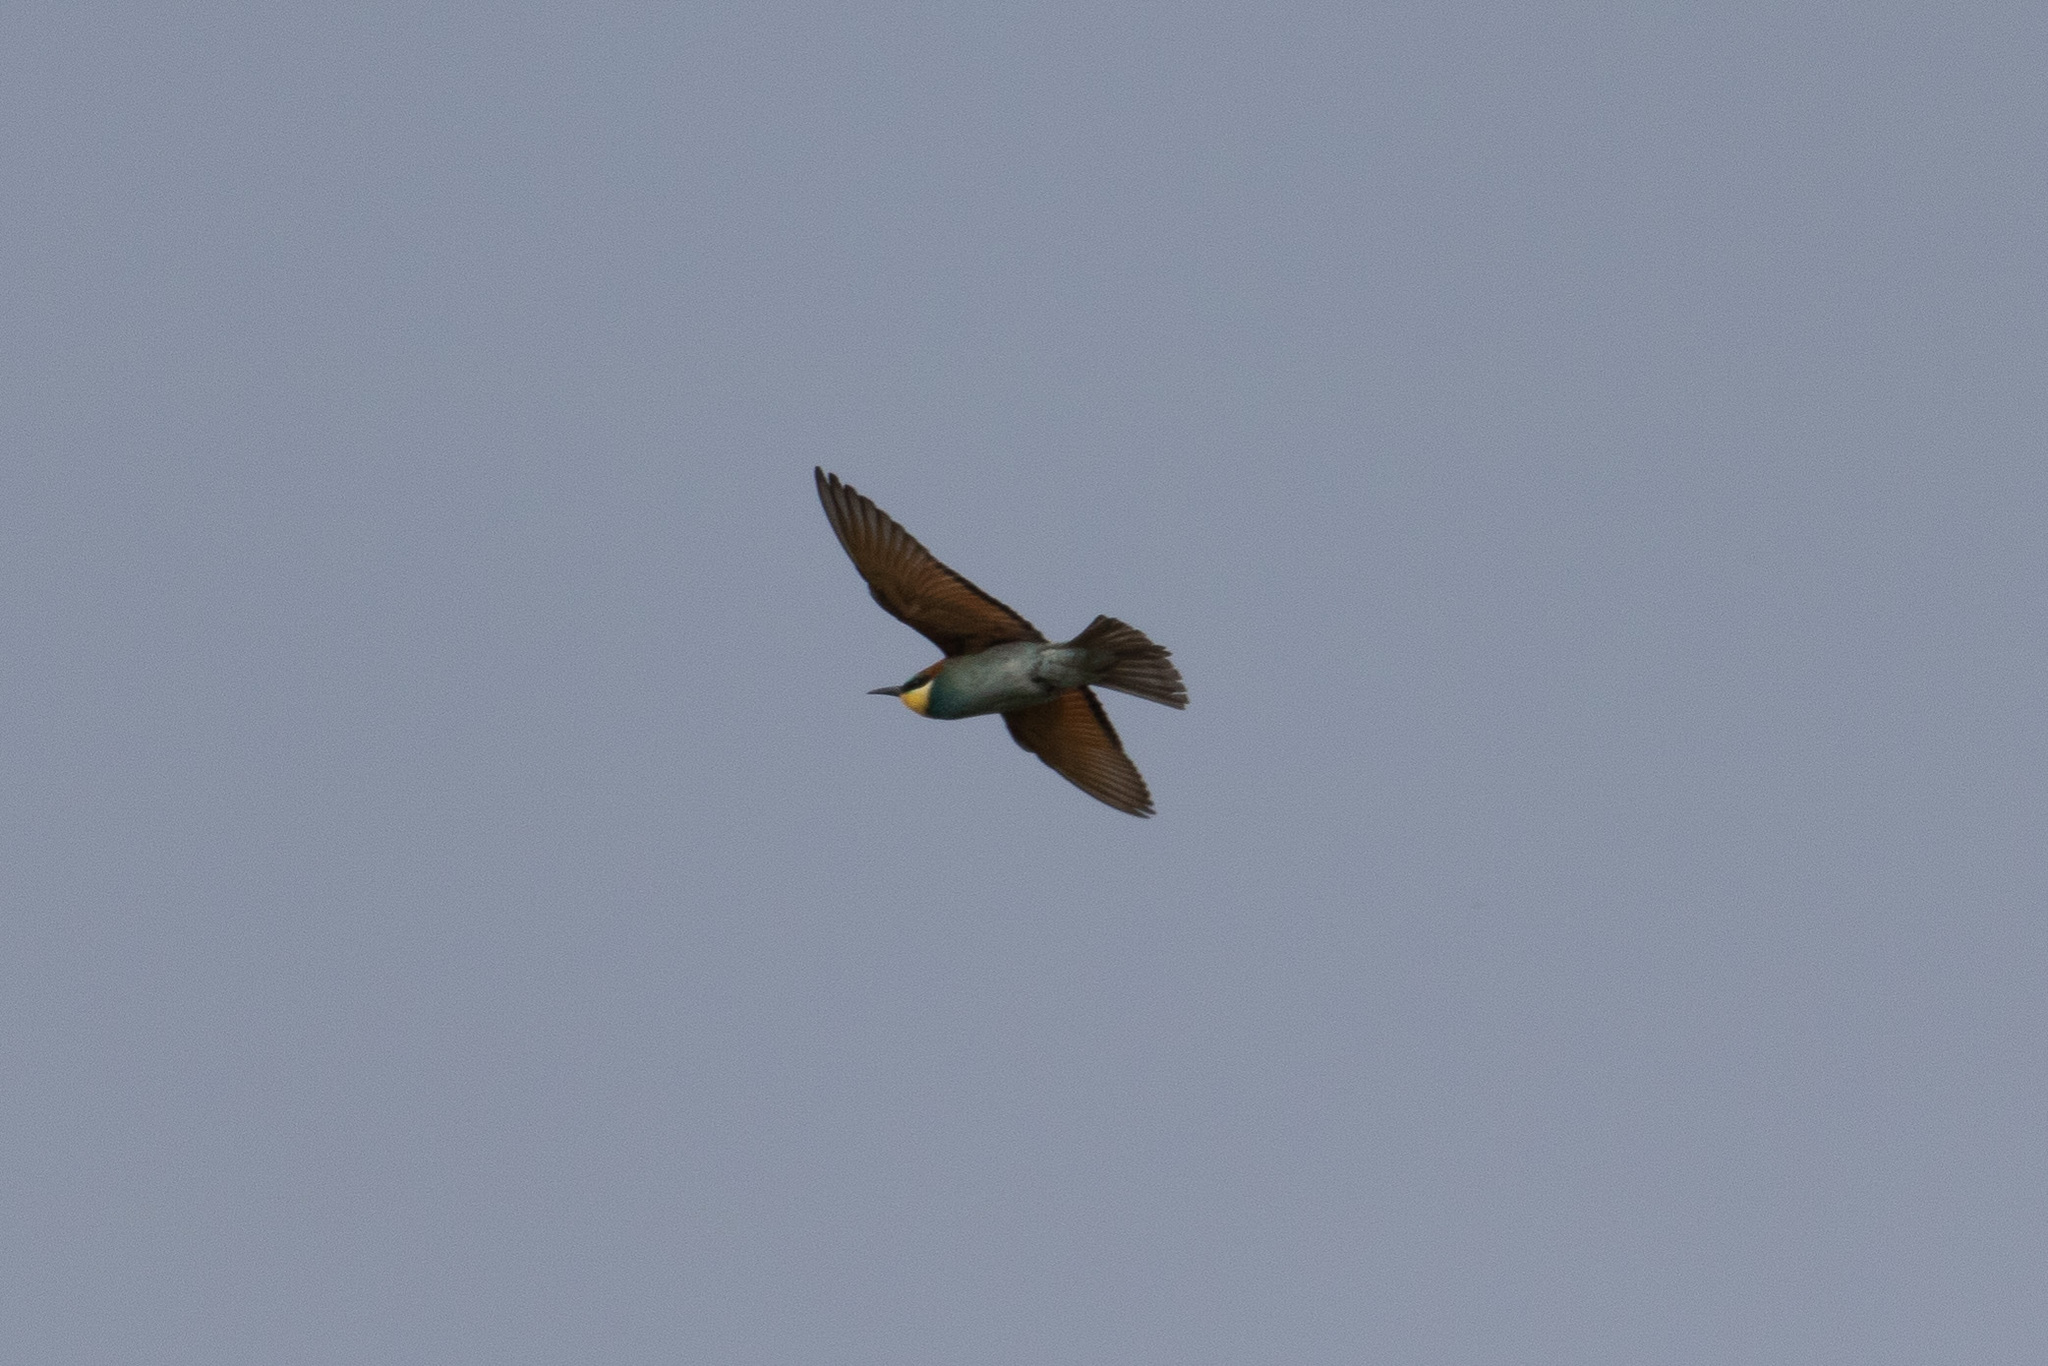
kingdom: Animalia
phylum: Chordata
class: Aves
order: Coraciiformes
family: Meropidae
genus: Merops
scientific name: Merops apiaster
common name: European bee-eater
